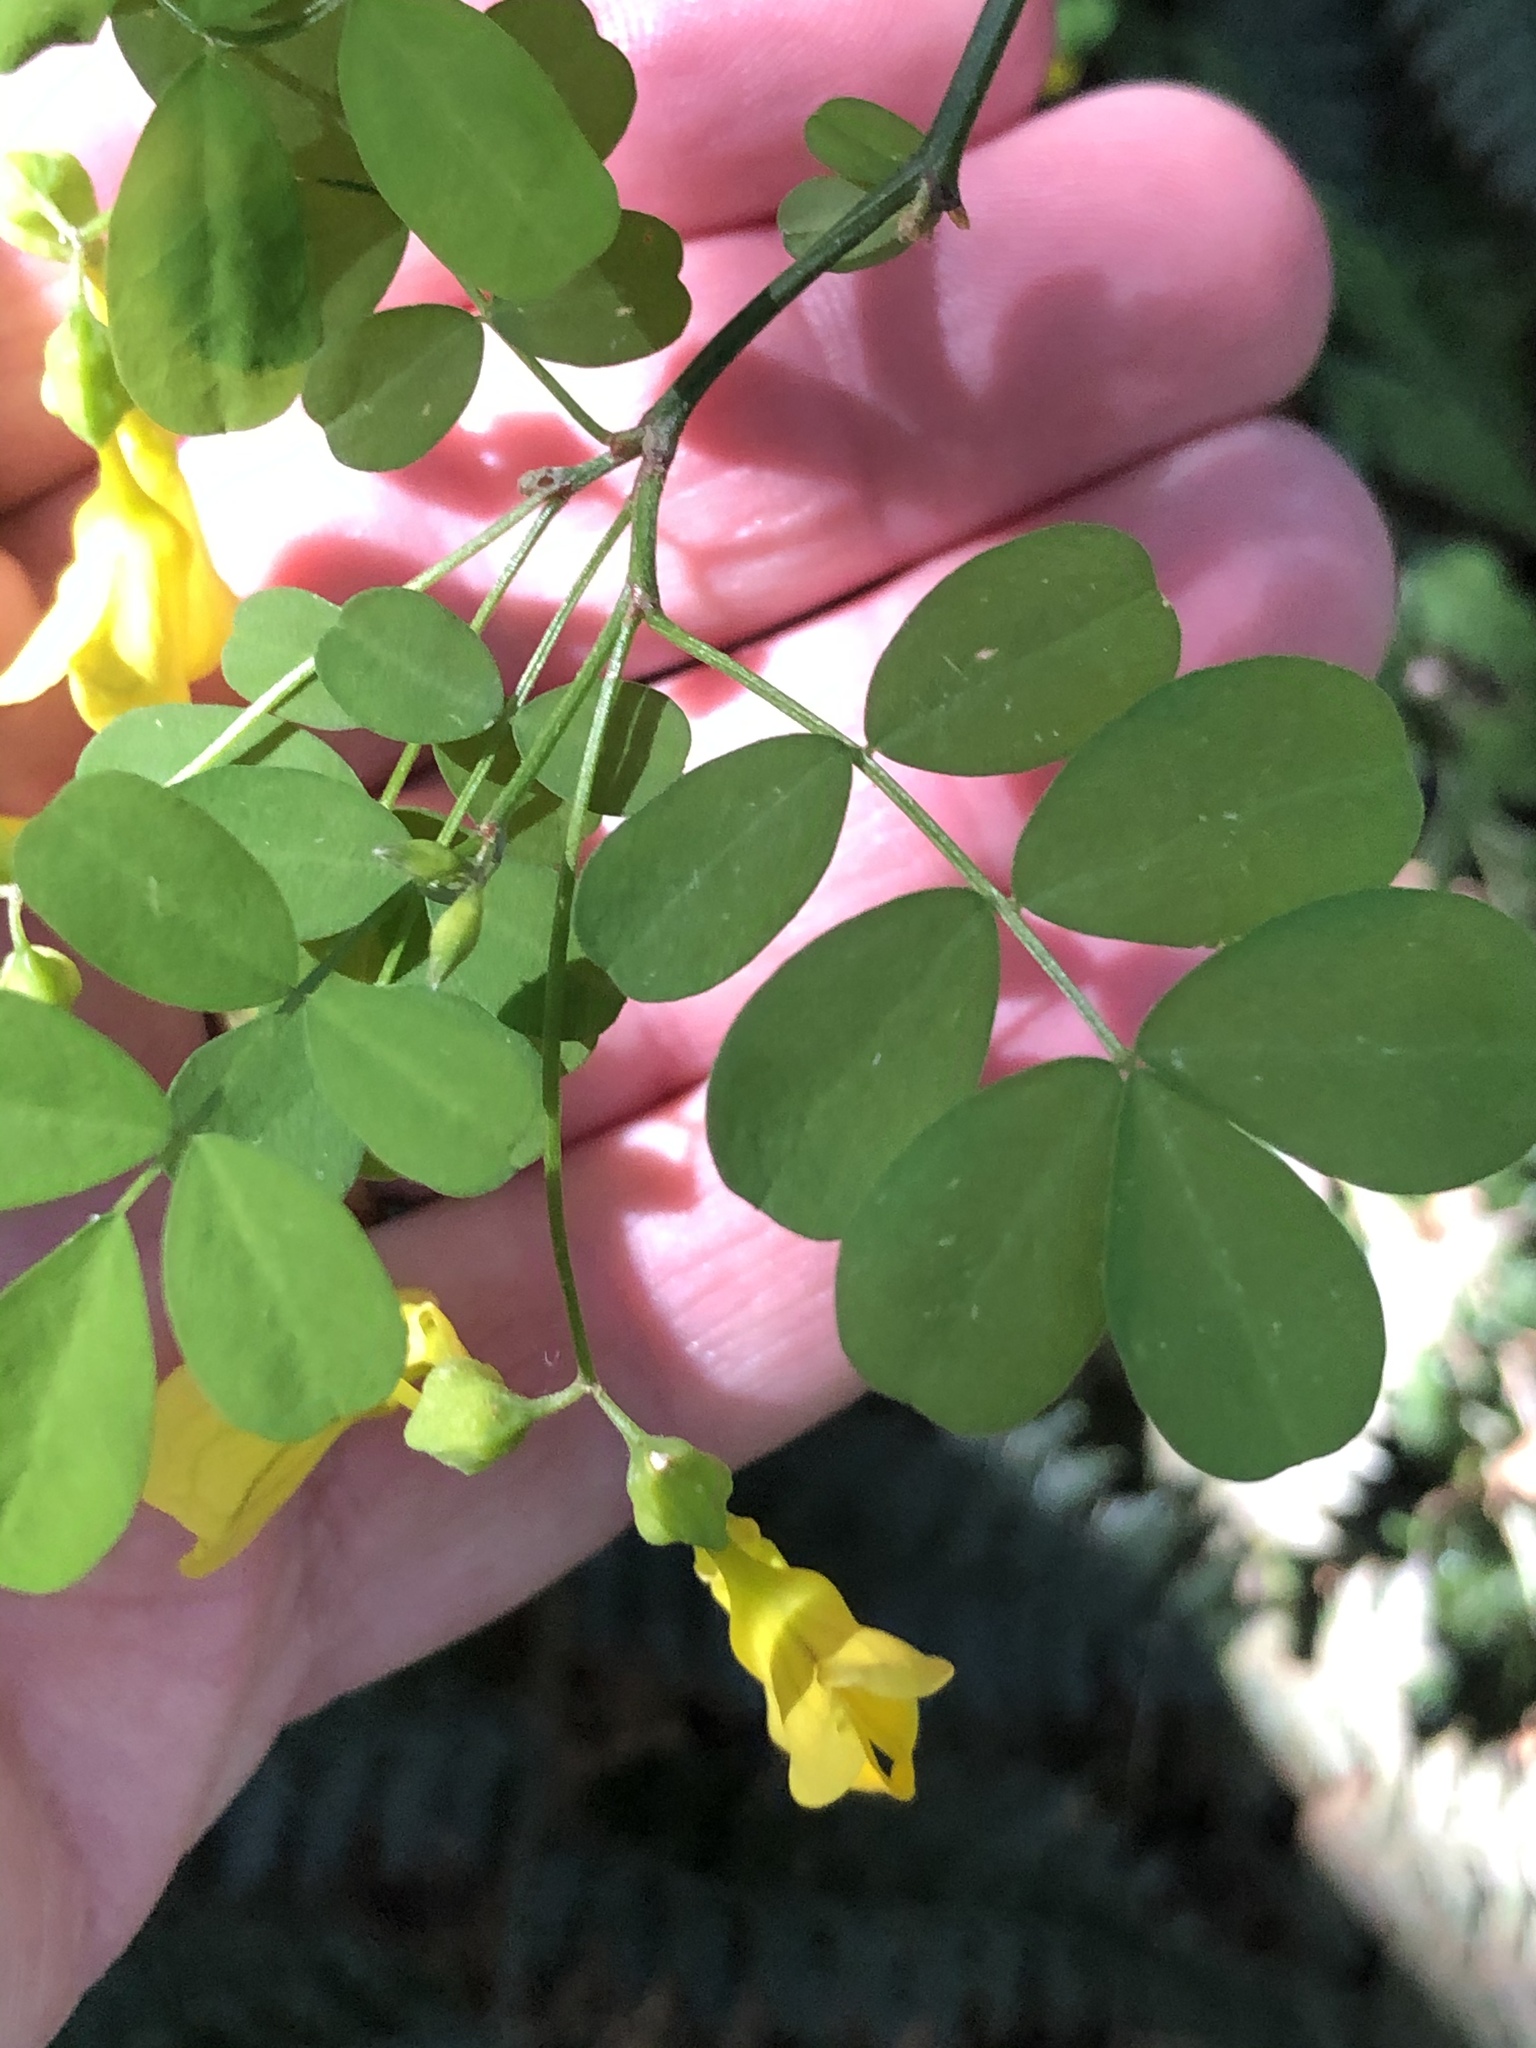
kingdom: Plantae
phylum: Tracheophyta
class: Magnoliopsida
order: Fabales
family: Fabaceae
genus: Hippocrepis
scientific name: Hippocrepis emerus
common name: Scorpion senna
